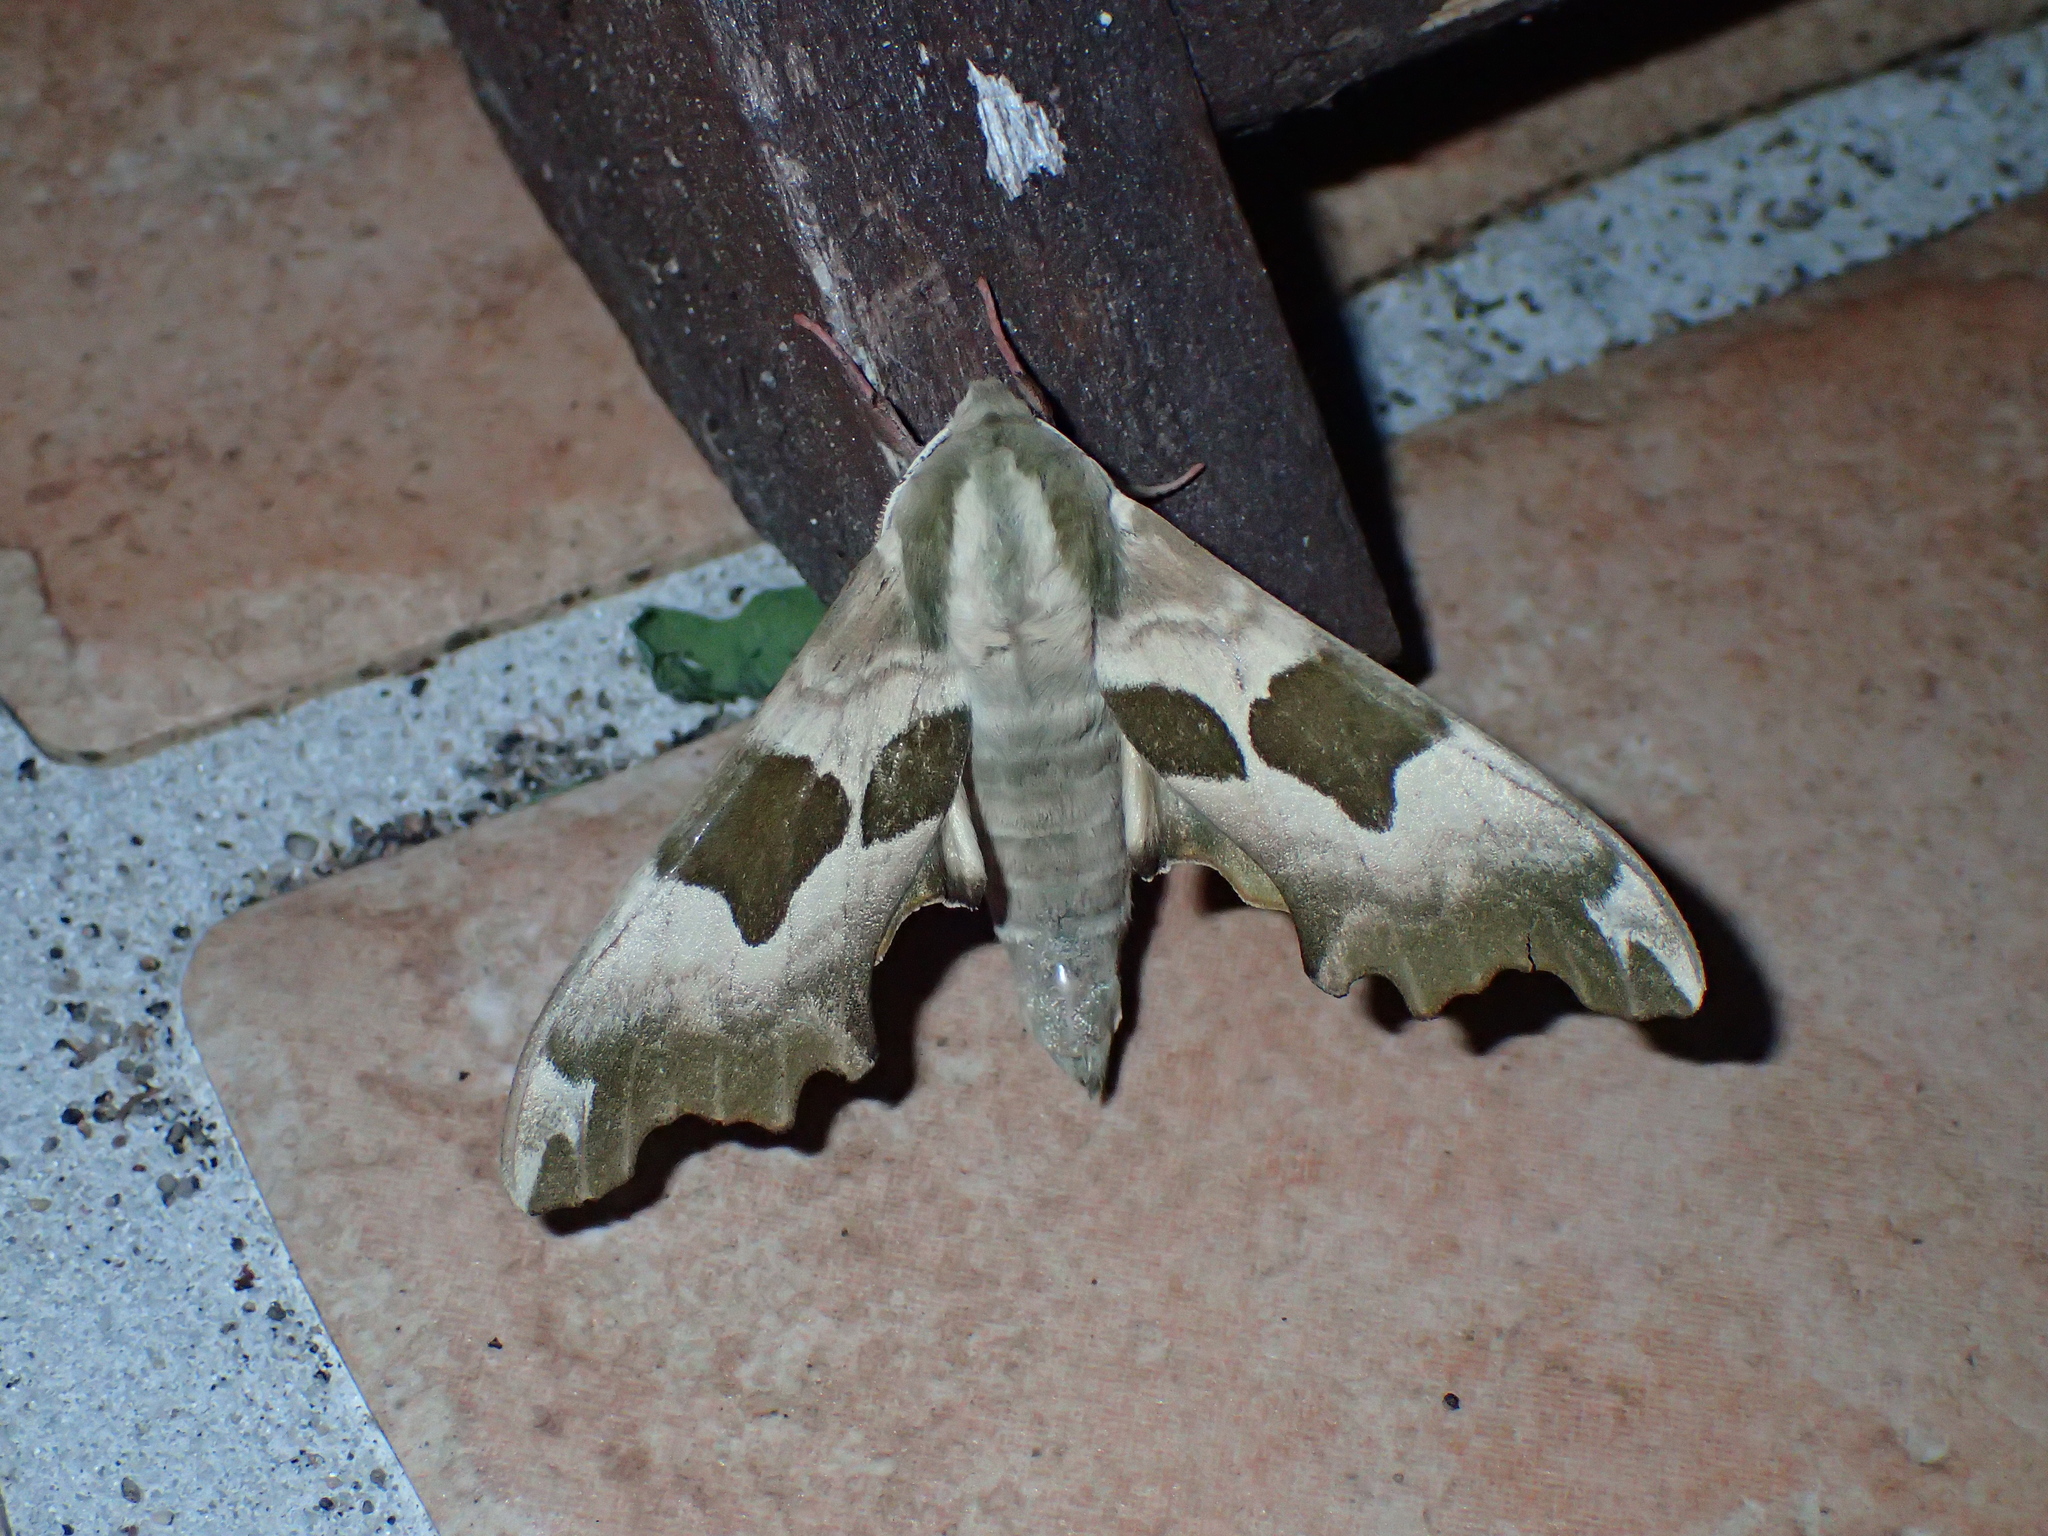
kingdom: Animalia
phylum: Arthropoda
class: Insecta
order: Lepidoptera
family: Sphingidae
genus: Mimas
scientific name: Mimas tiliae
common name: Lime hawk-moth
